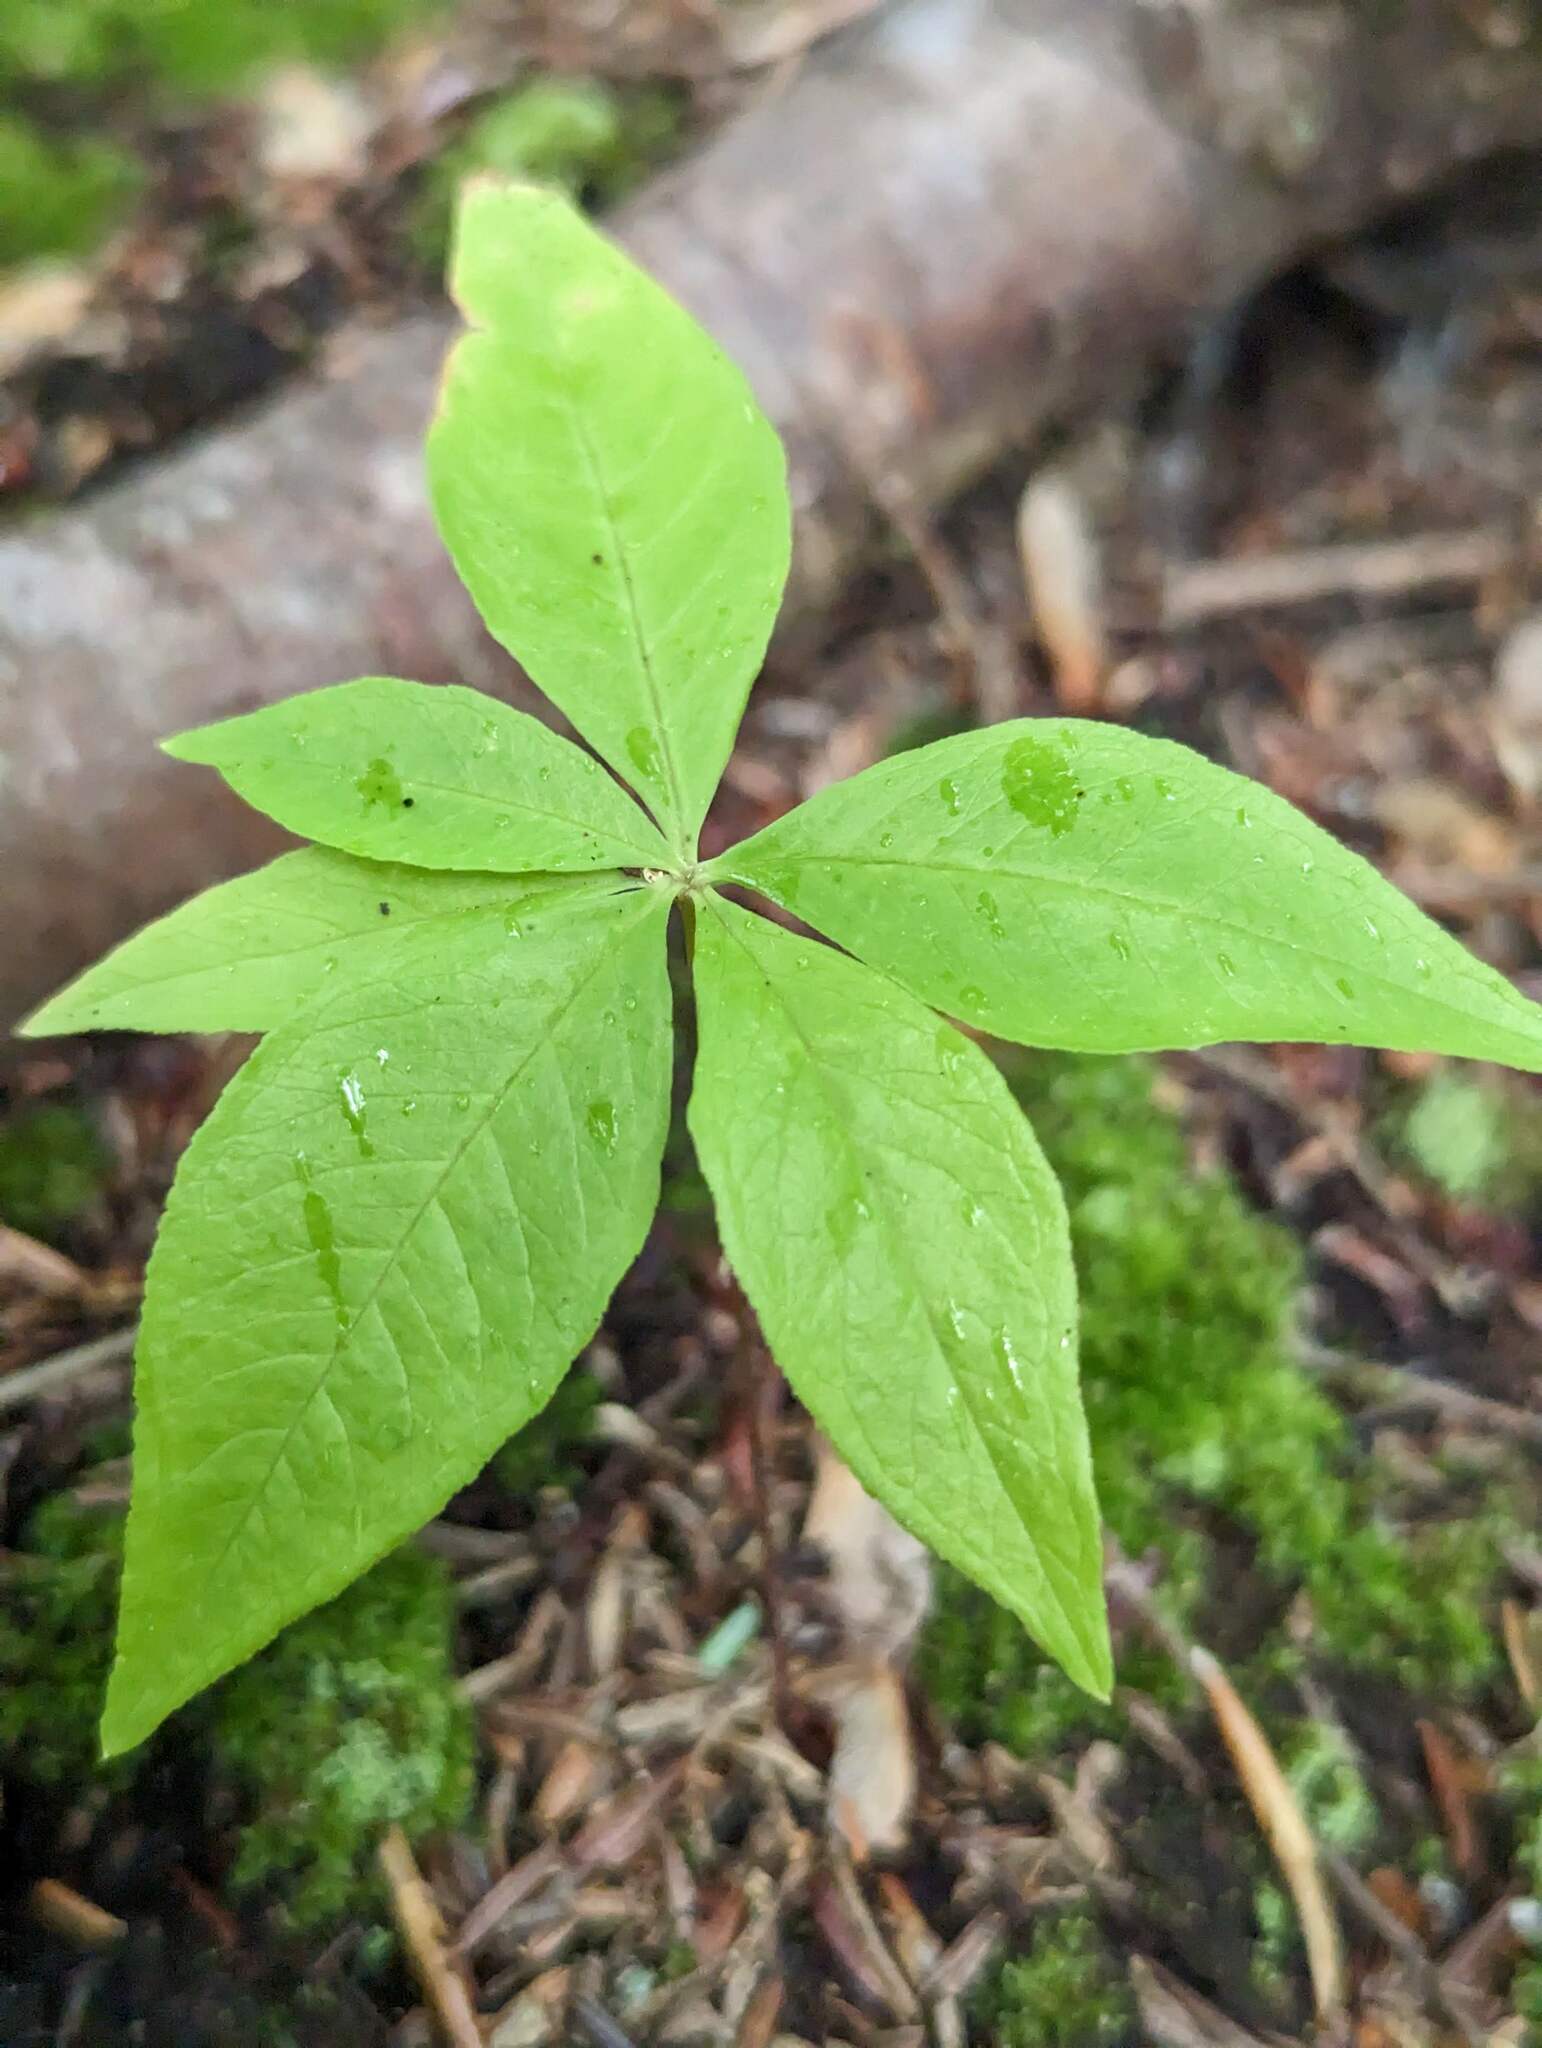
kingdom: Plantae
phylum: Tracheophyta
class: Magnoliopsida
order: Ericales
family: Primulaceae
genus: Lysimachia
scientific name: Lysimachia borealis
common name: American starflower
